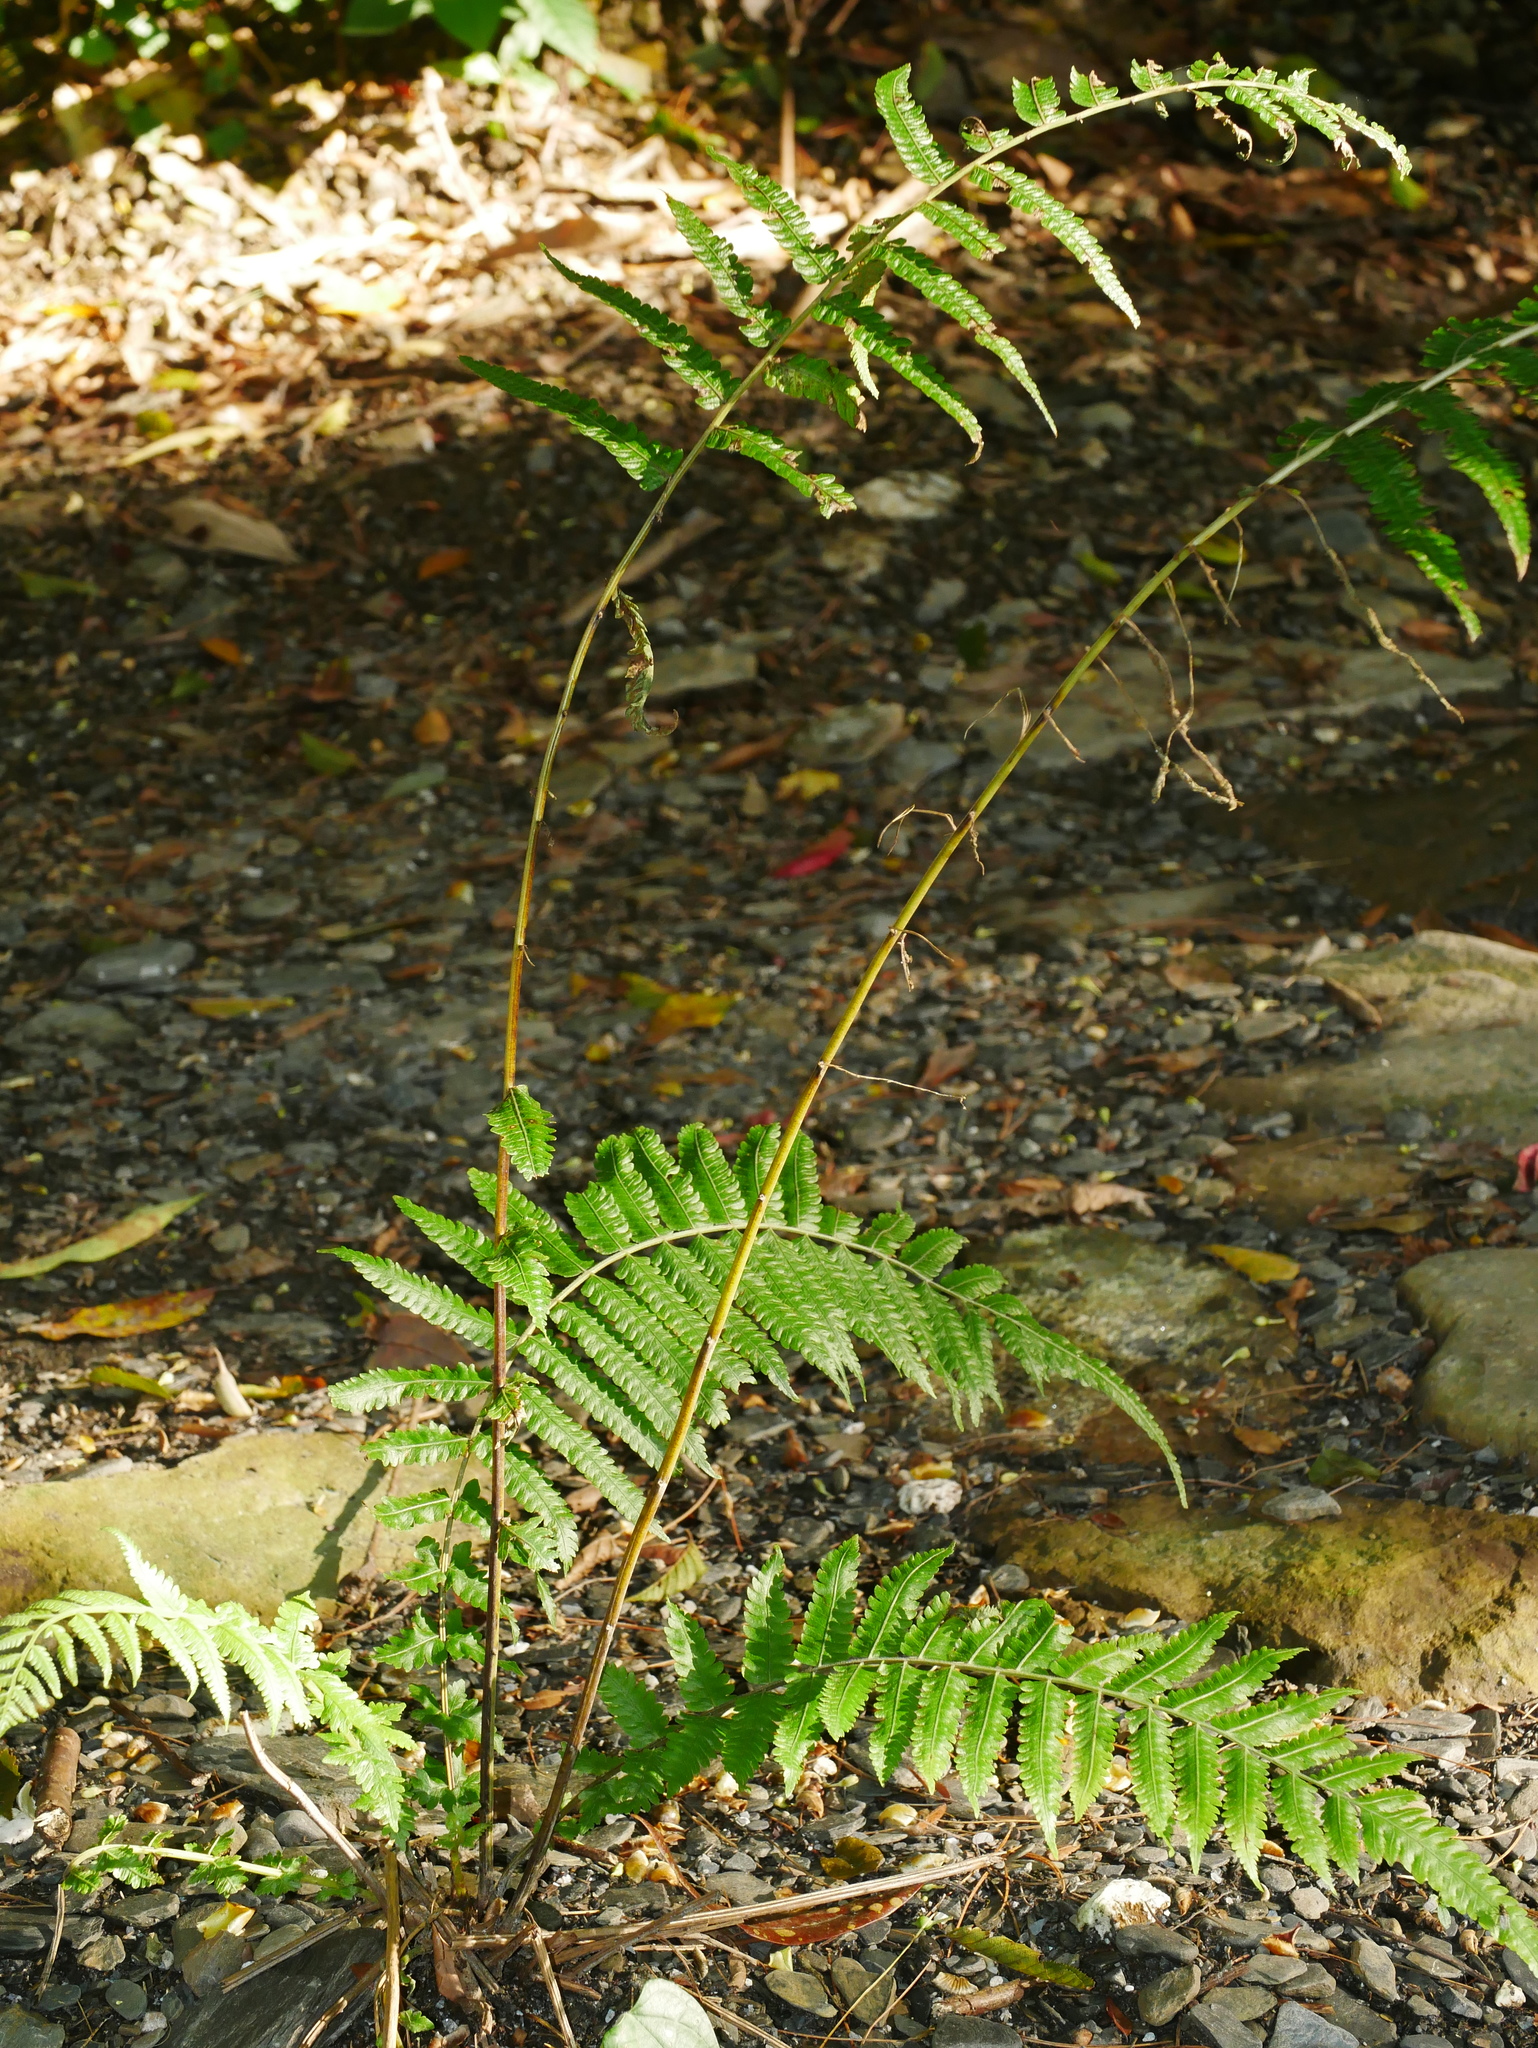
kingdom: Plantae
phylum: Tracheophyta
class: Polypodiopsida
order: Polypodiales
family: Thelypteridaceae
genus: Christella
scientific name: Christella papilio
